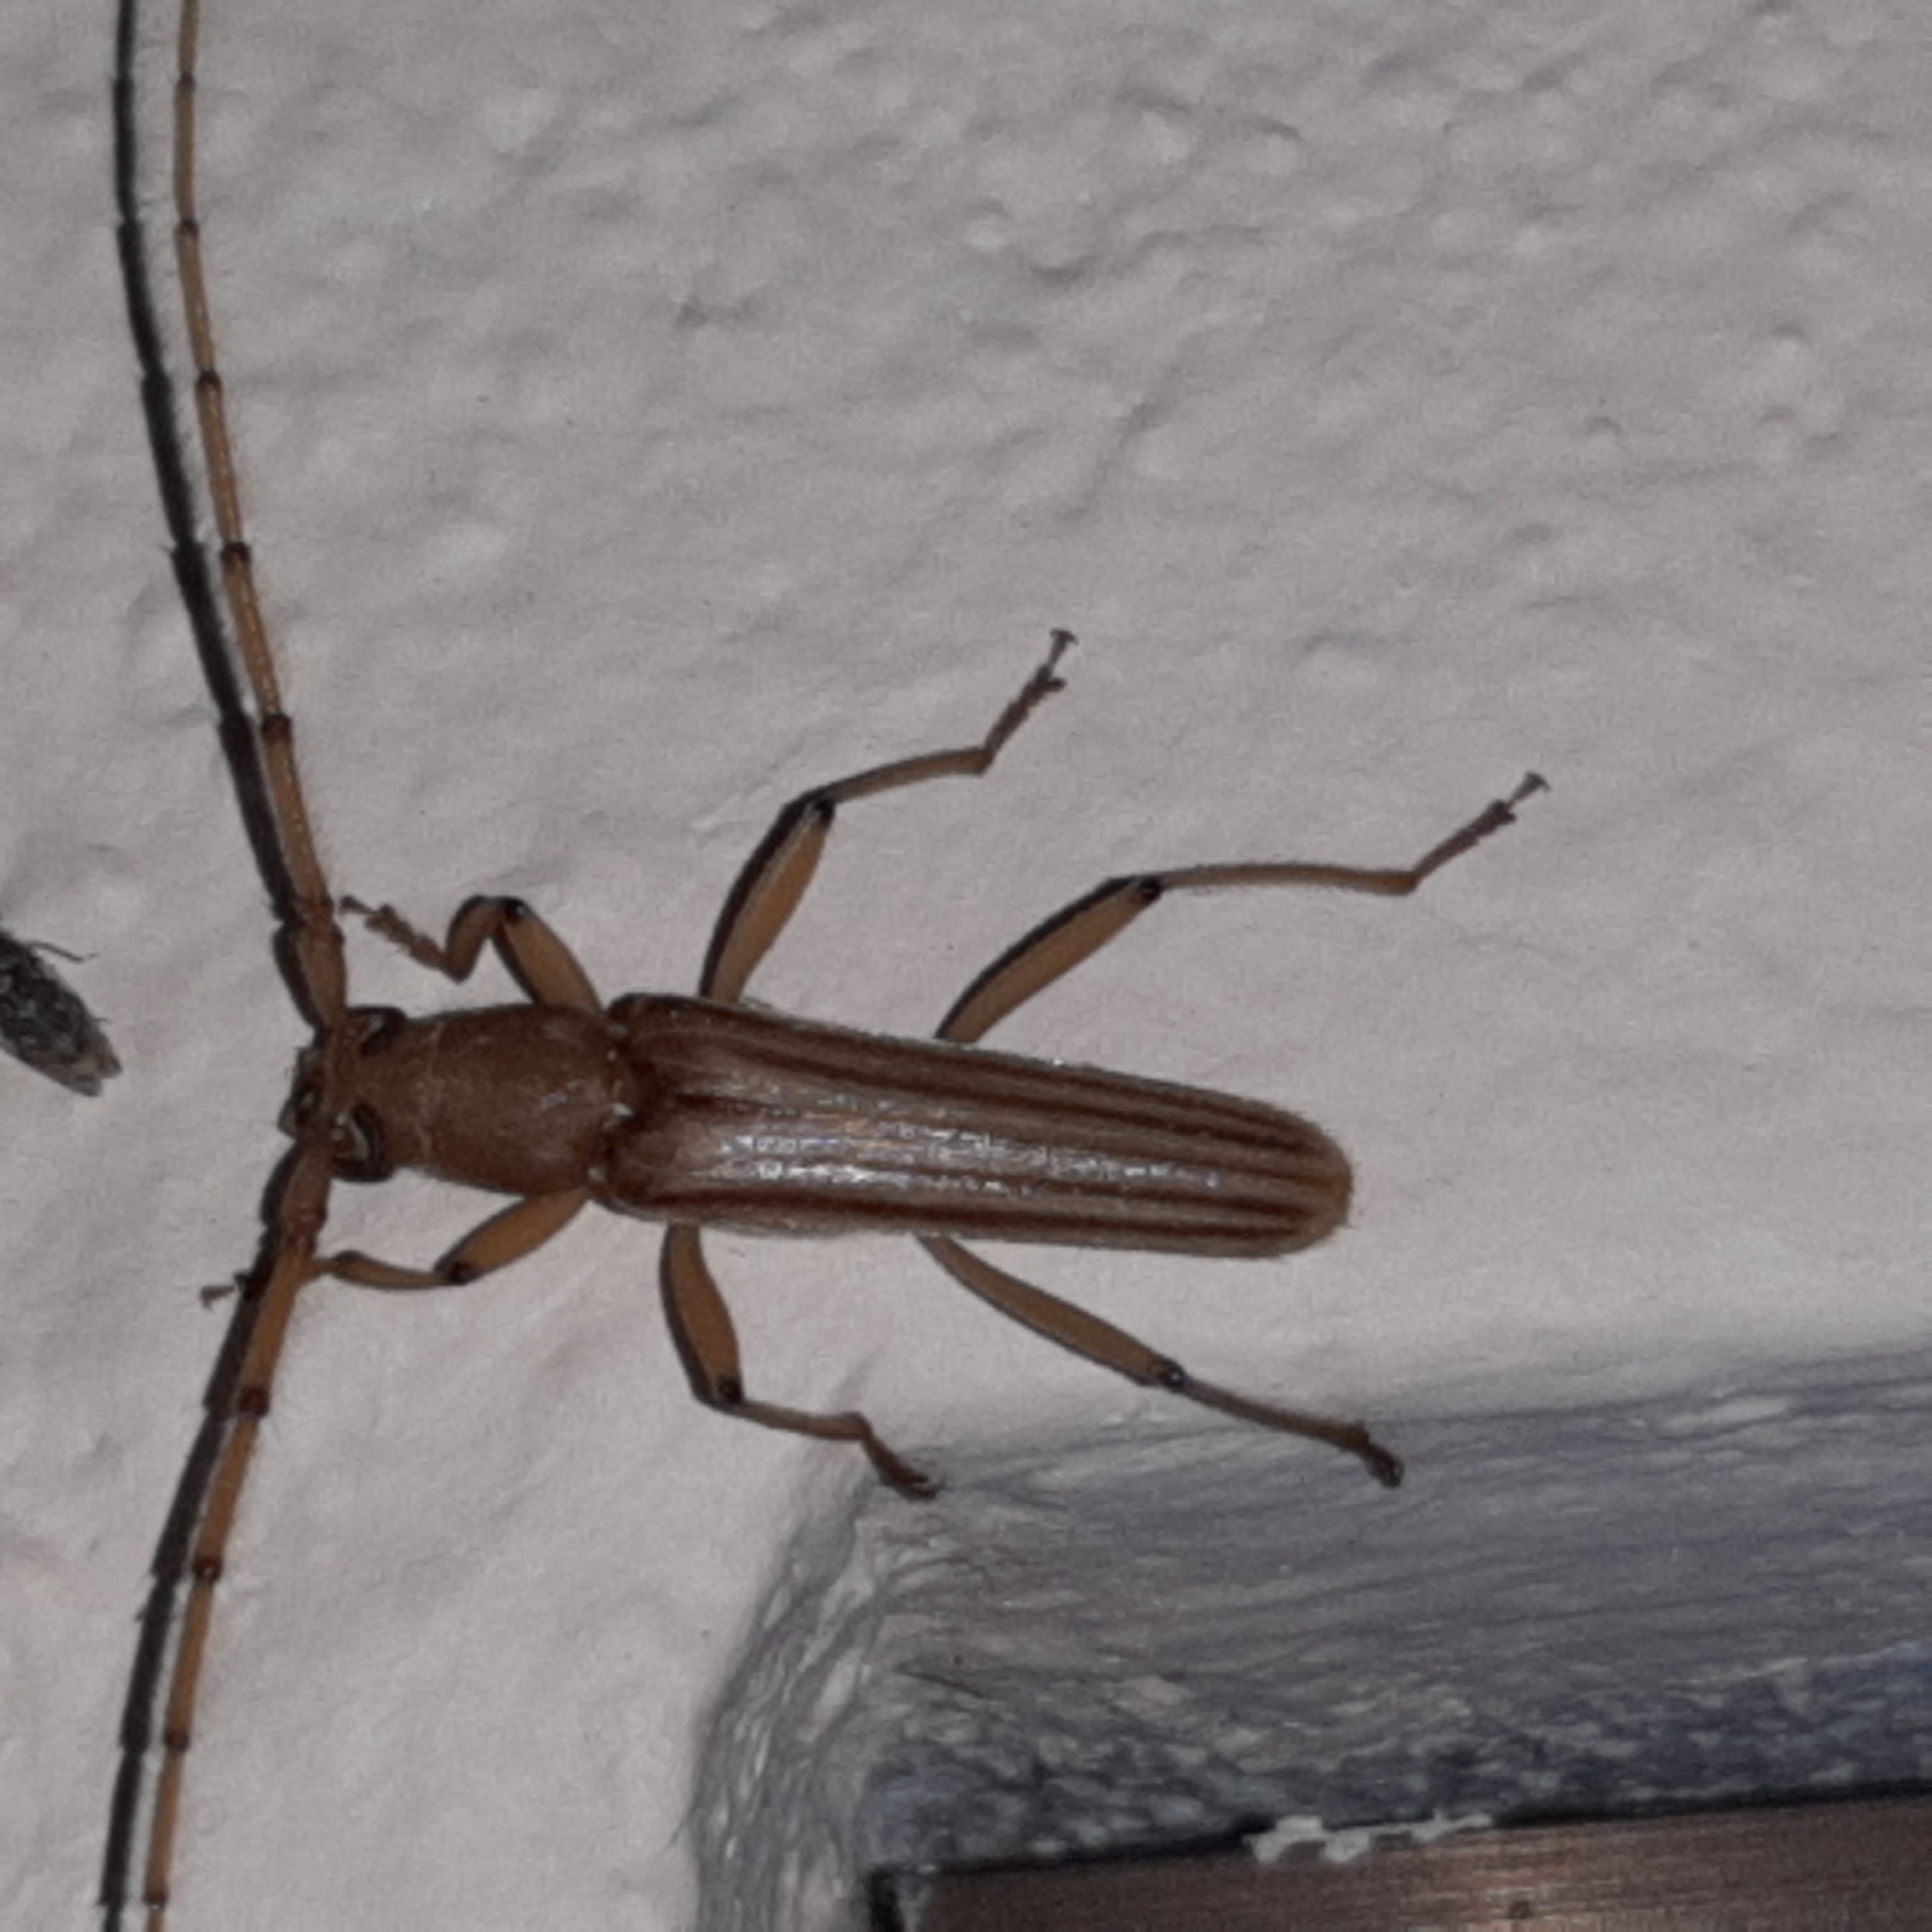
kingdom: Animalia
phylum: Arthropoda
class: Insecta
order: Coleoptera
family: Cerambycidae
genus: Malacopterus
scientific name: Malacopterus tenellus
